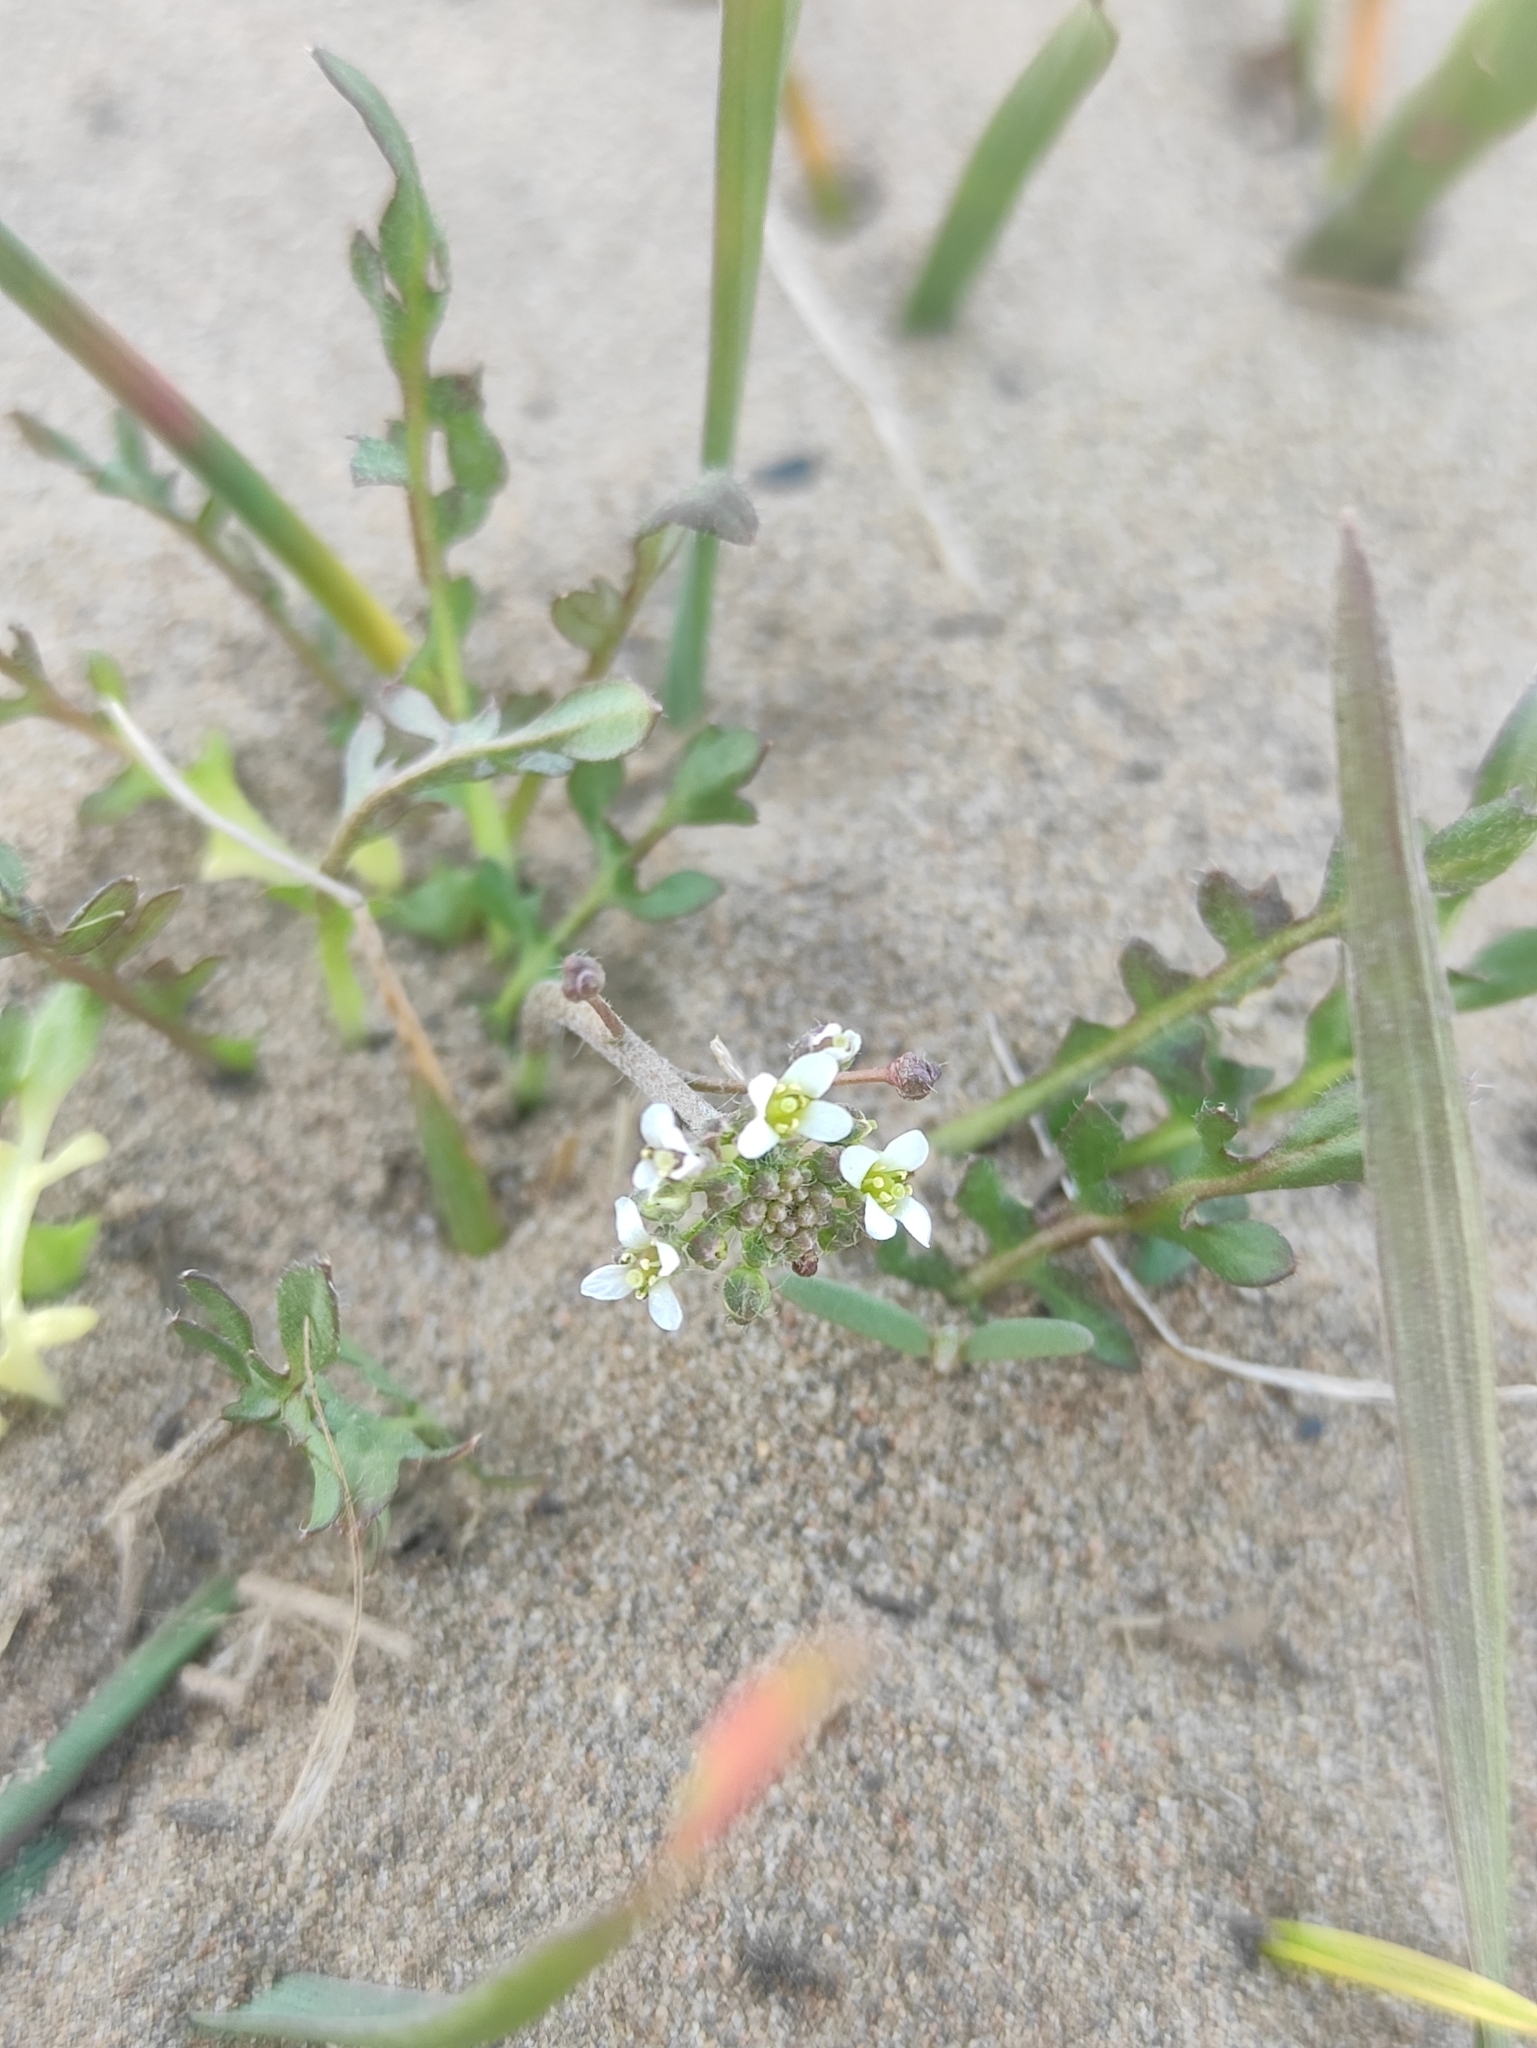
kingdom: Plantae
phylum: Tracheophyta
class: Magnoliopsida
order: Brassicales
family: Brassicaceae
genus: Capsella
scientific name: Capsella bursa-pastoris
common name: Shepherd's purse
